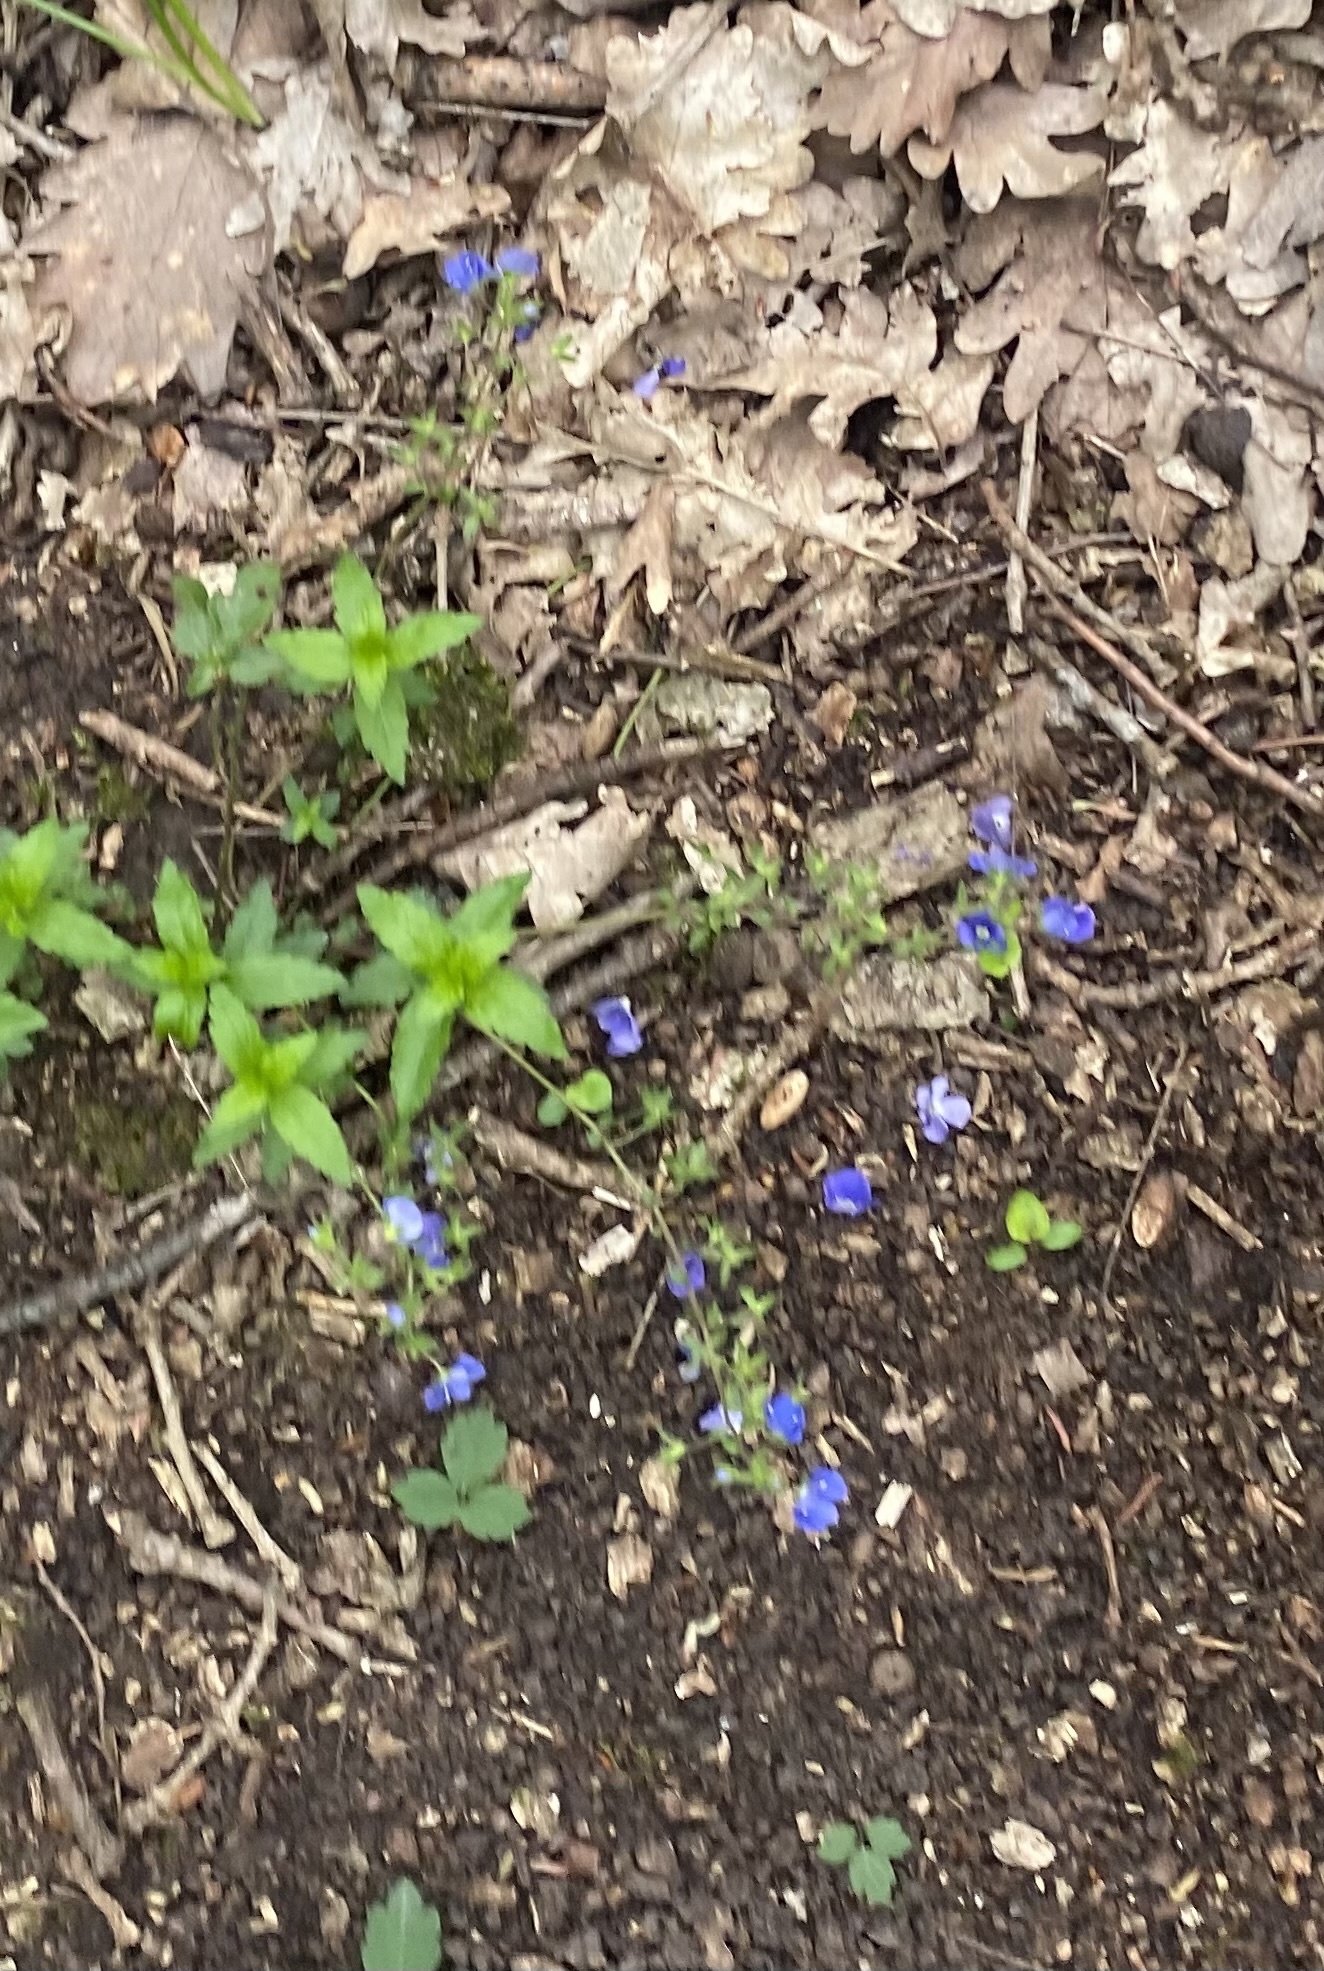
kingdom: Plantae
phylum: Tracheophyta
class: Magnoliopsida
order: Lamiales
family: Plantaginaceae
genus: Veronica
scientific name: Veronica
